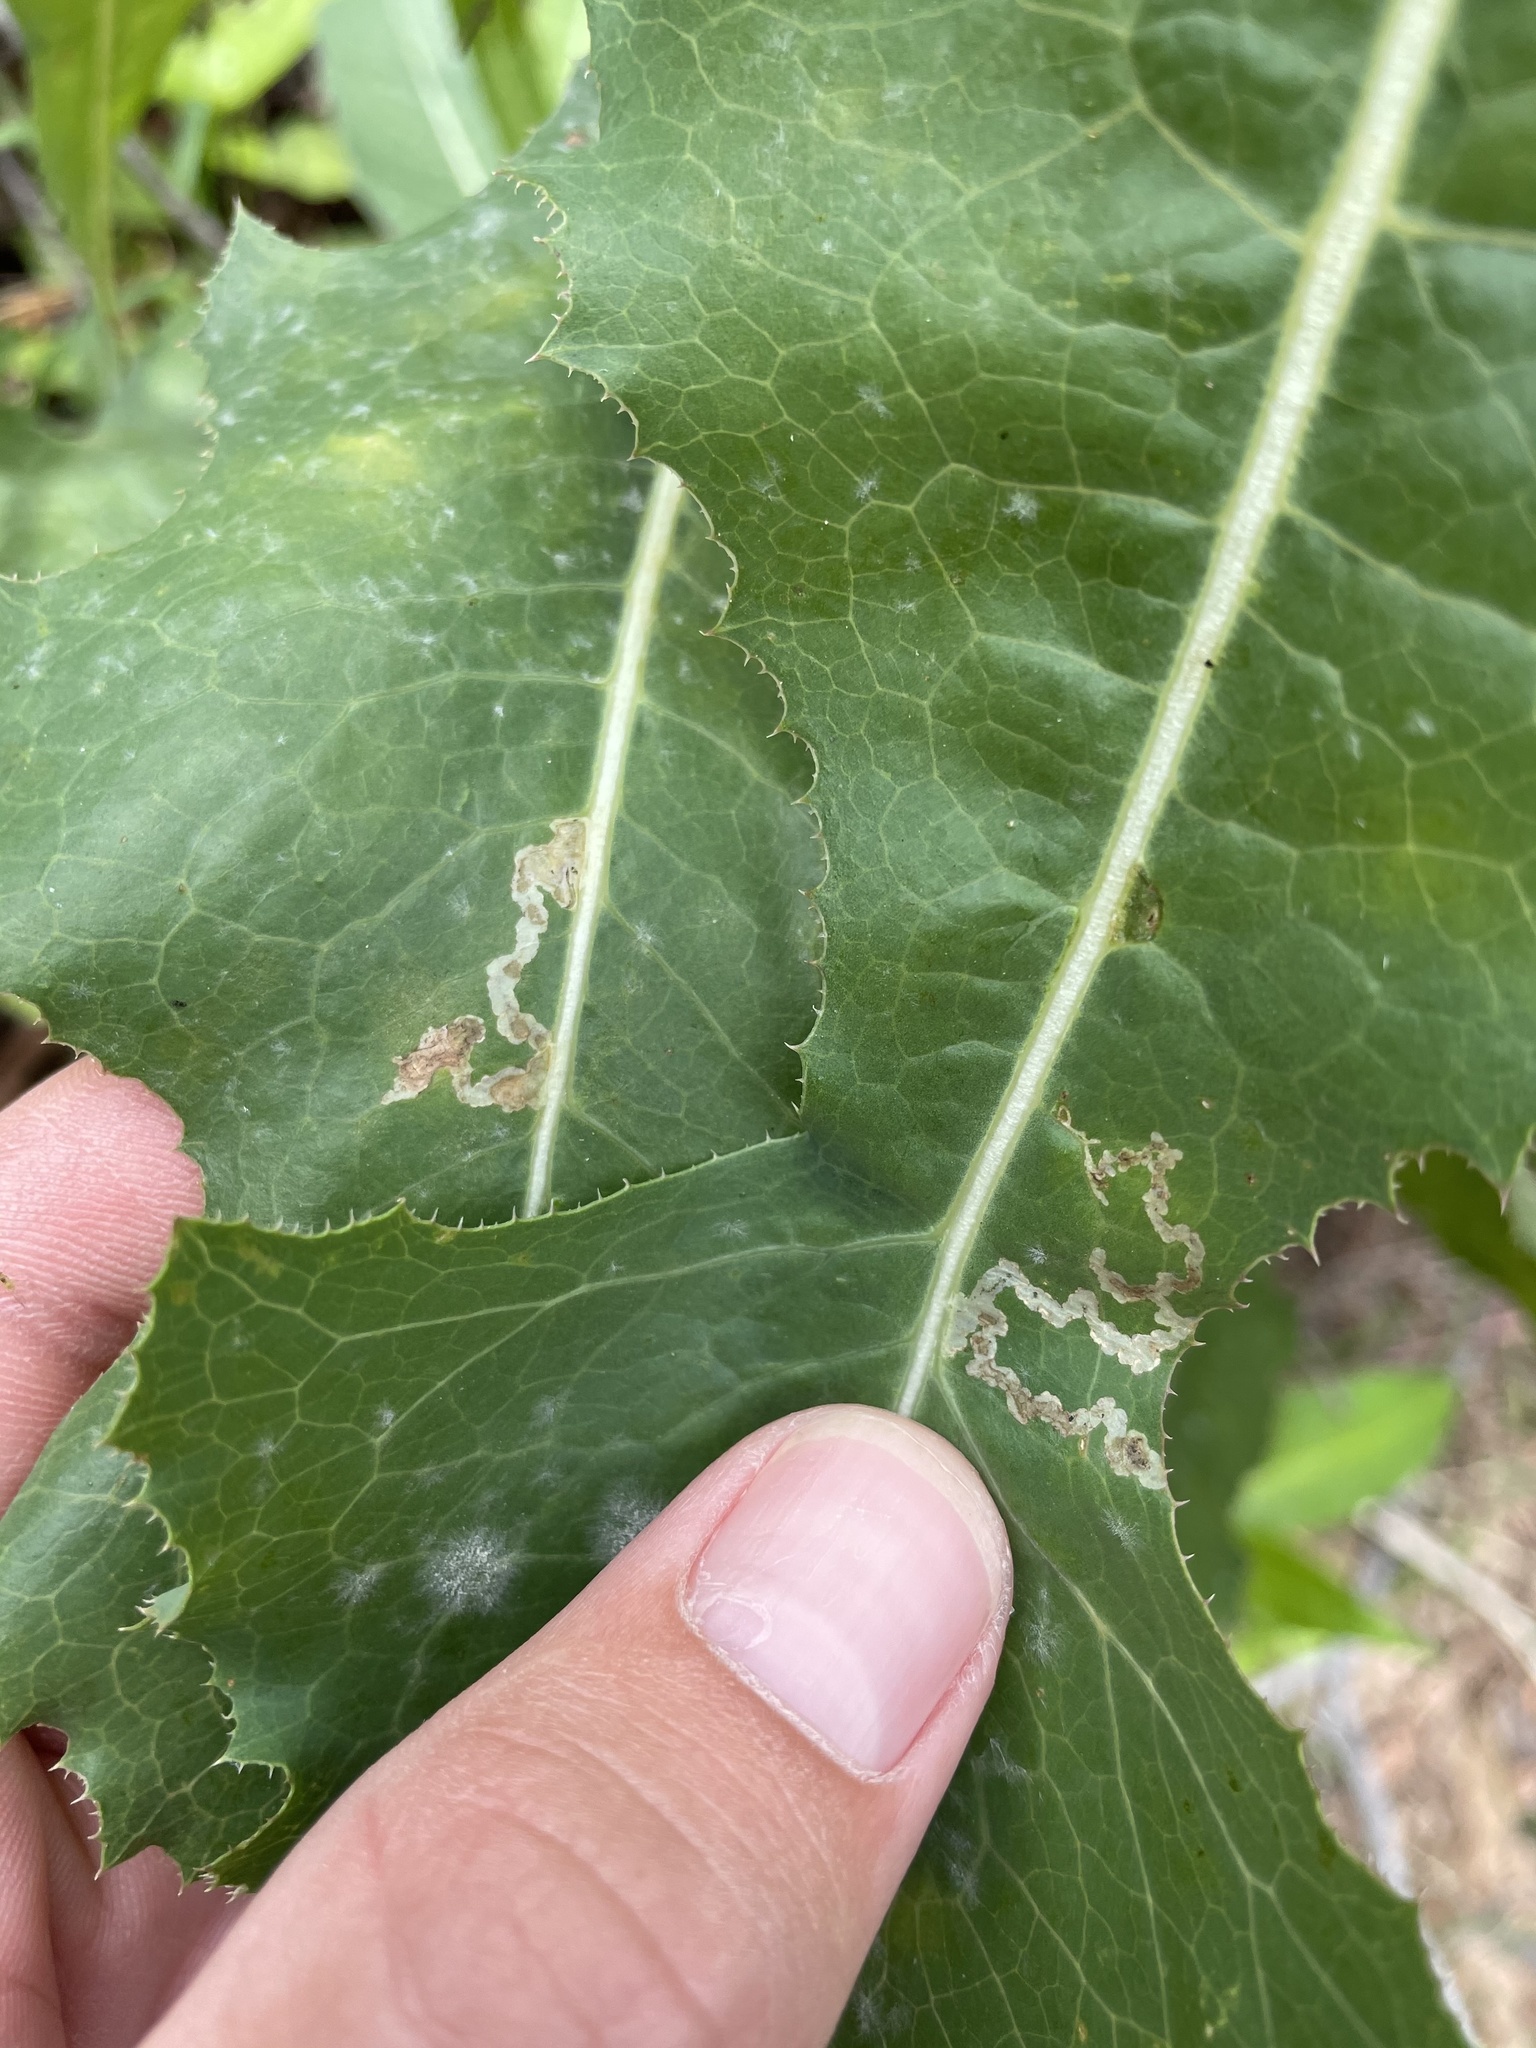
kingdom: Animalia
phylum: Arthropoda
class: Insecta
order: Diptera
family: Agromyzidae
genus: Liriomyza
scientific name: Liriomyza taraxaci
